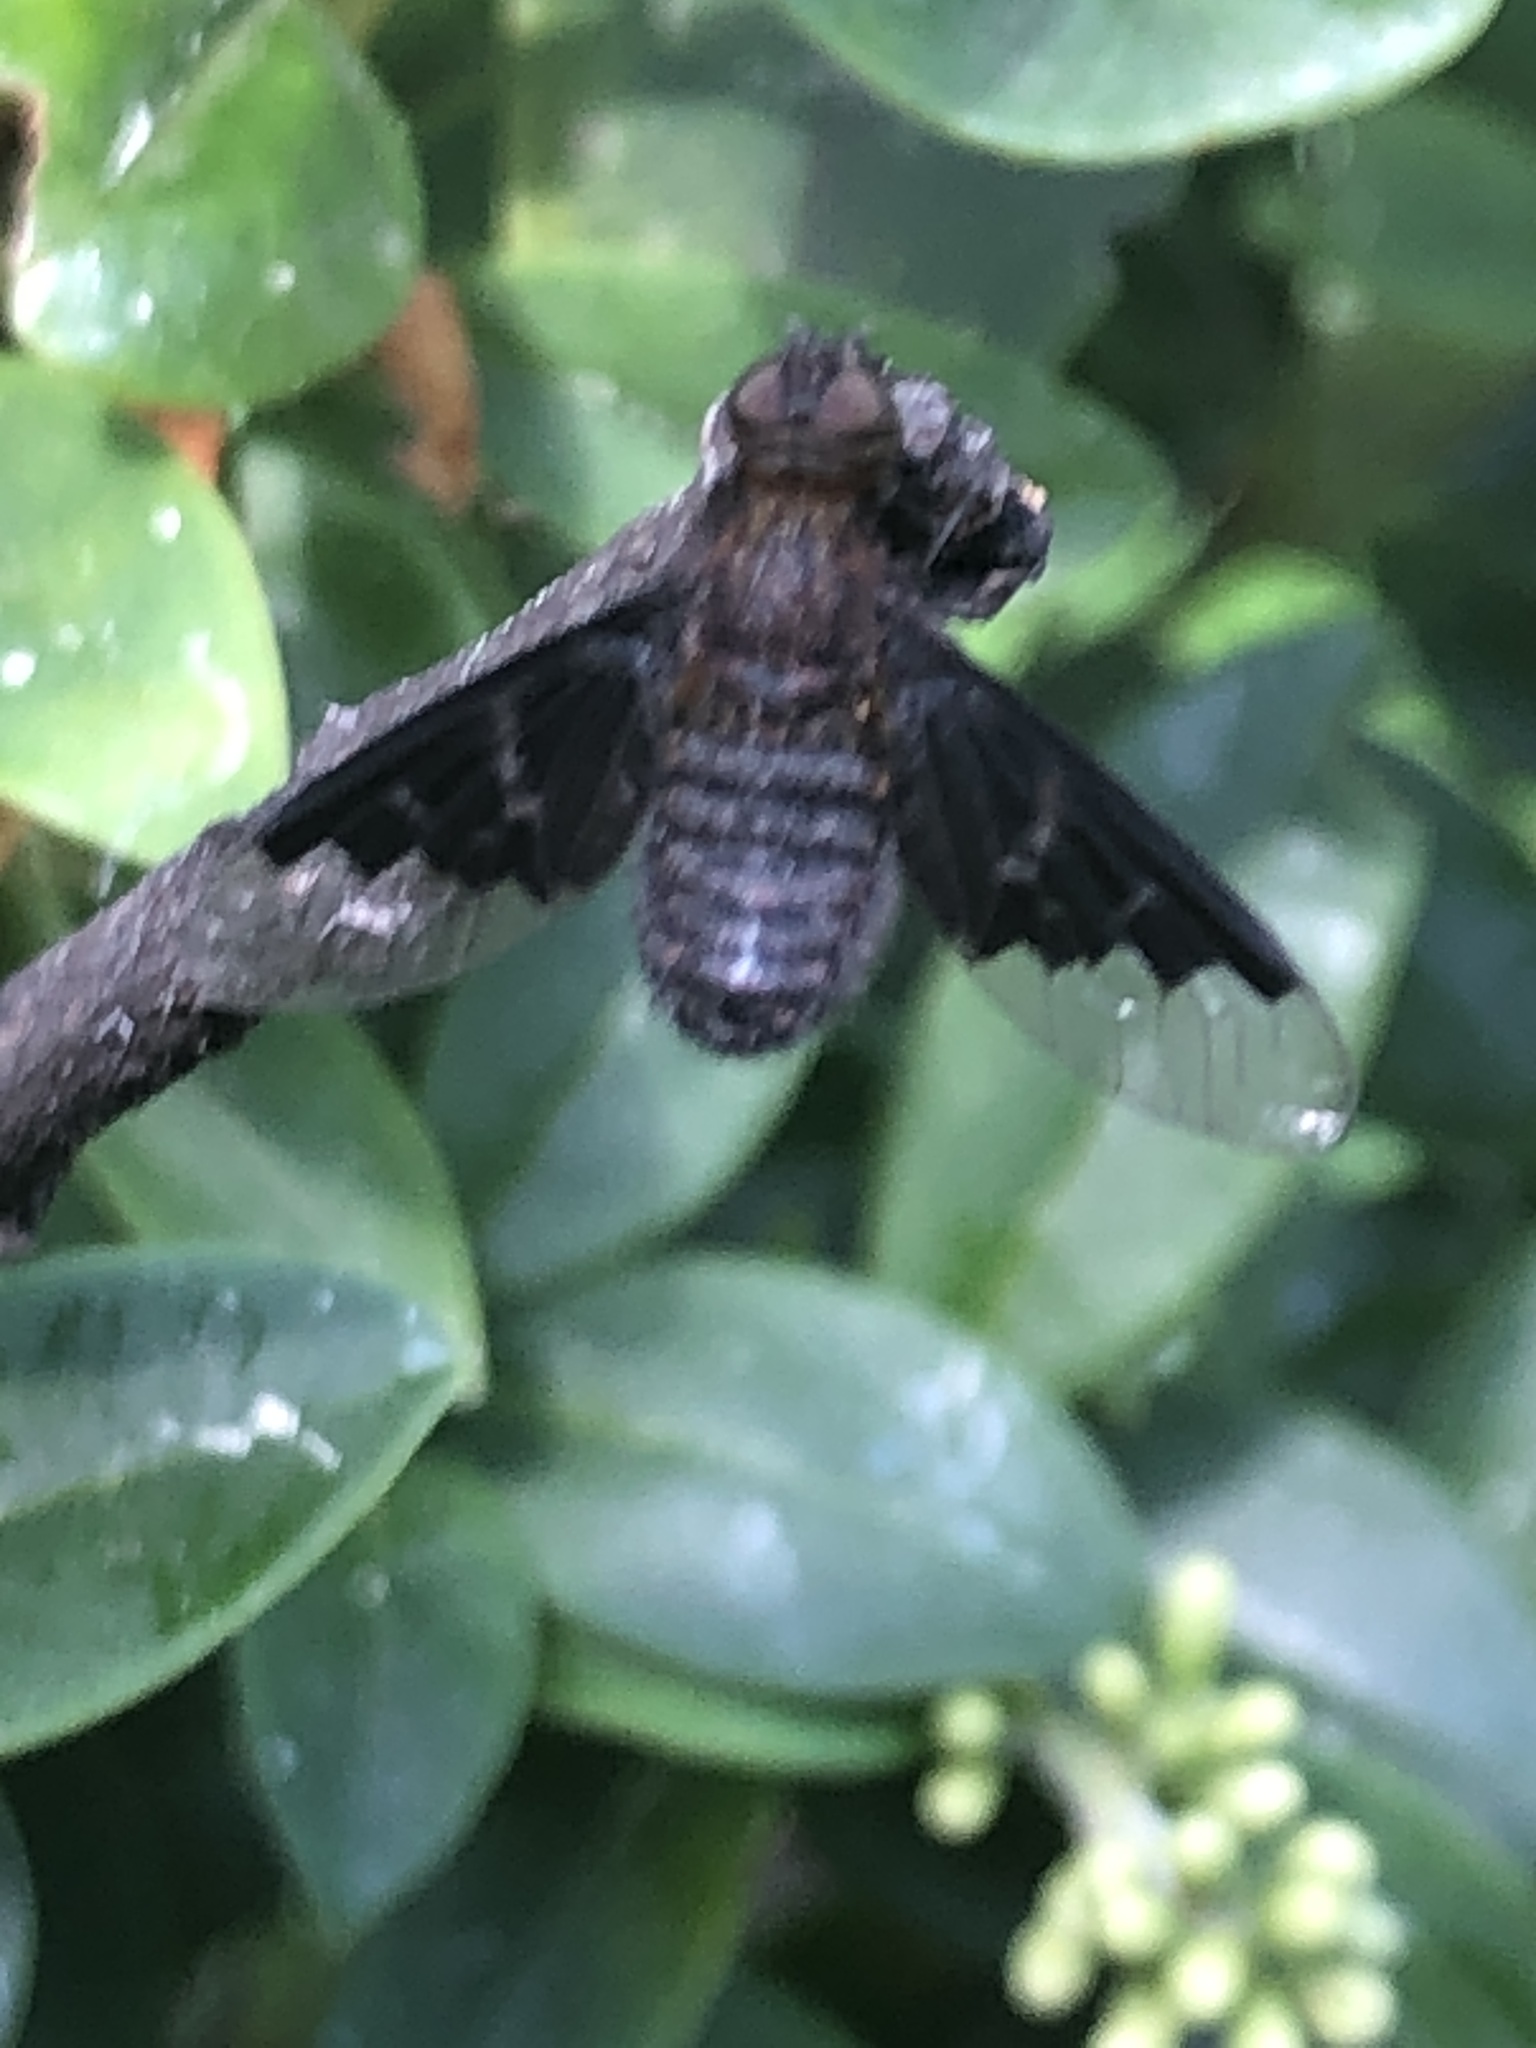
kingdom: Animalia
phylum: Arthropoda
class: Insecta
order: Diptera
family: Bombyliidae
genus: Hemipenthes
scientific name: Hemipenthes morio
